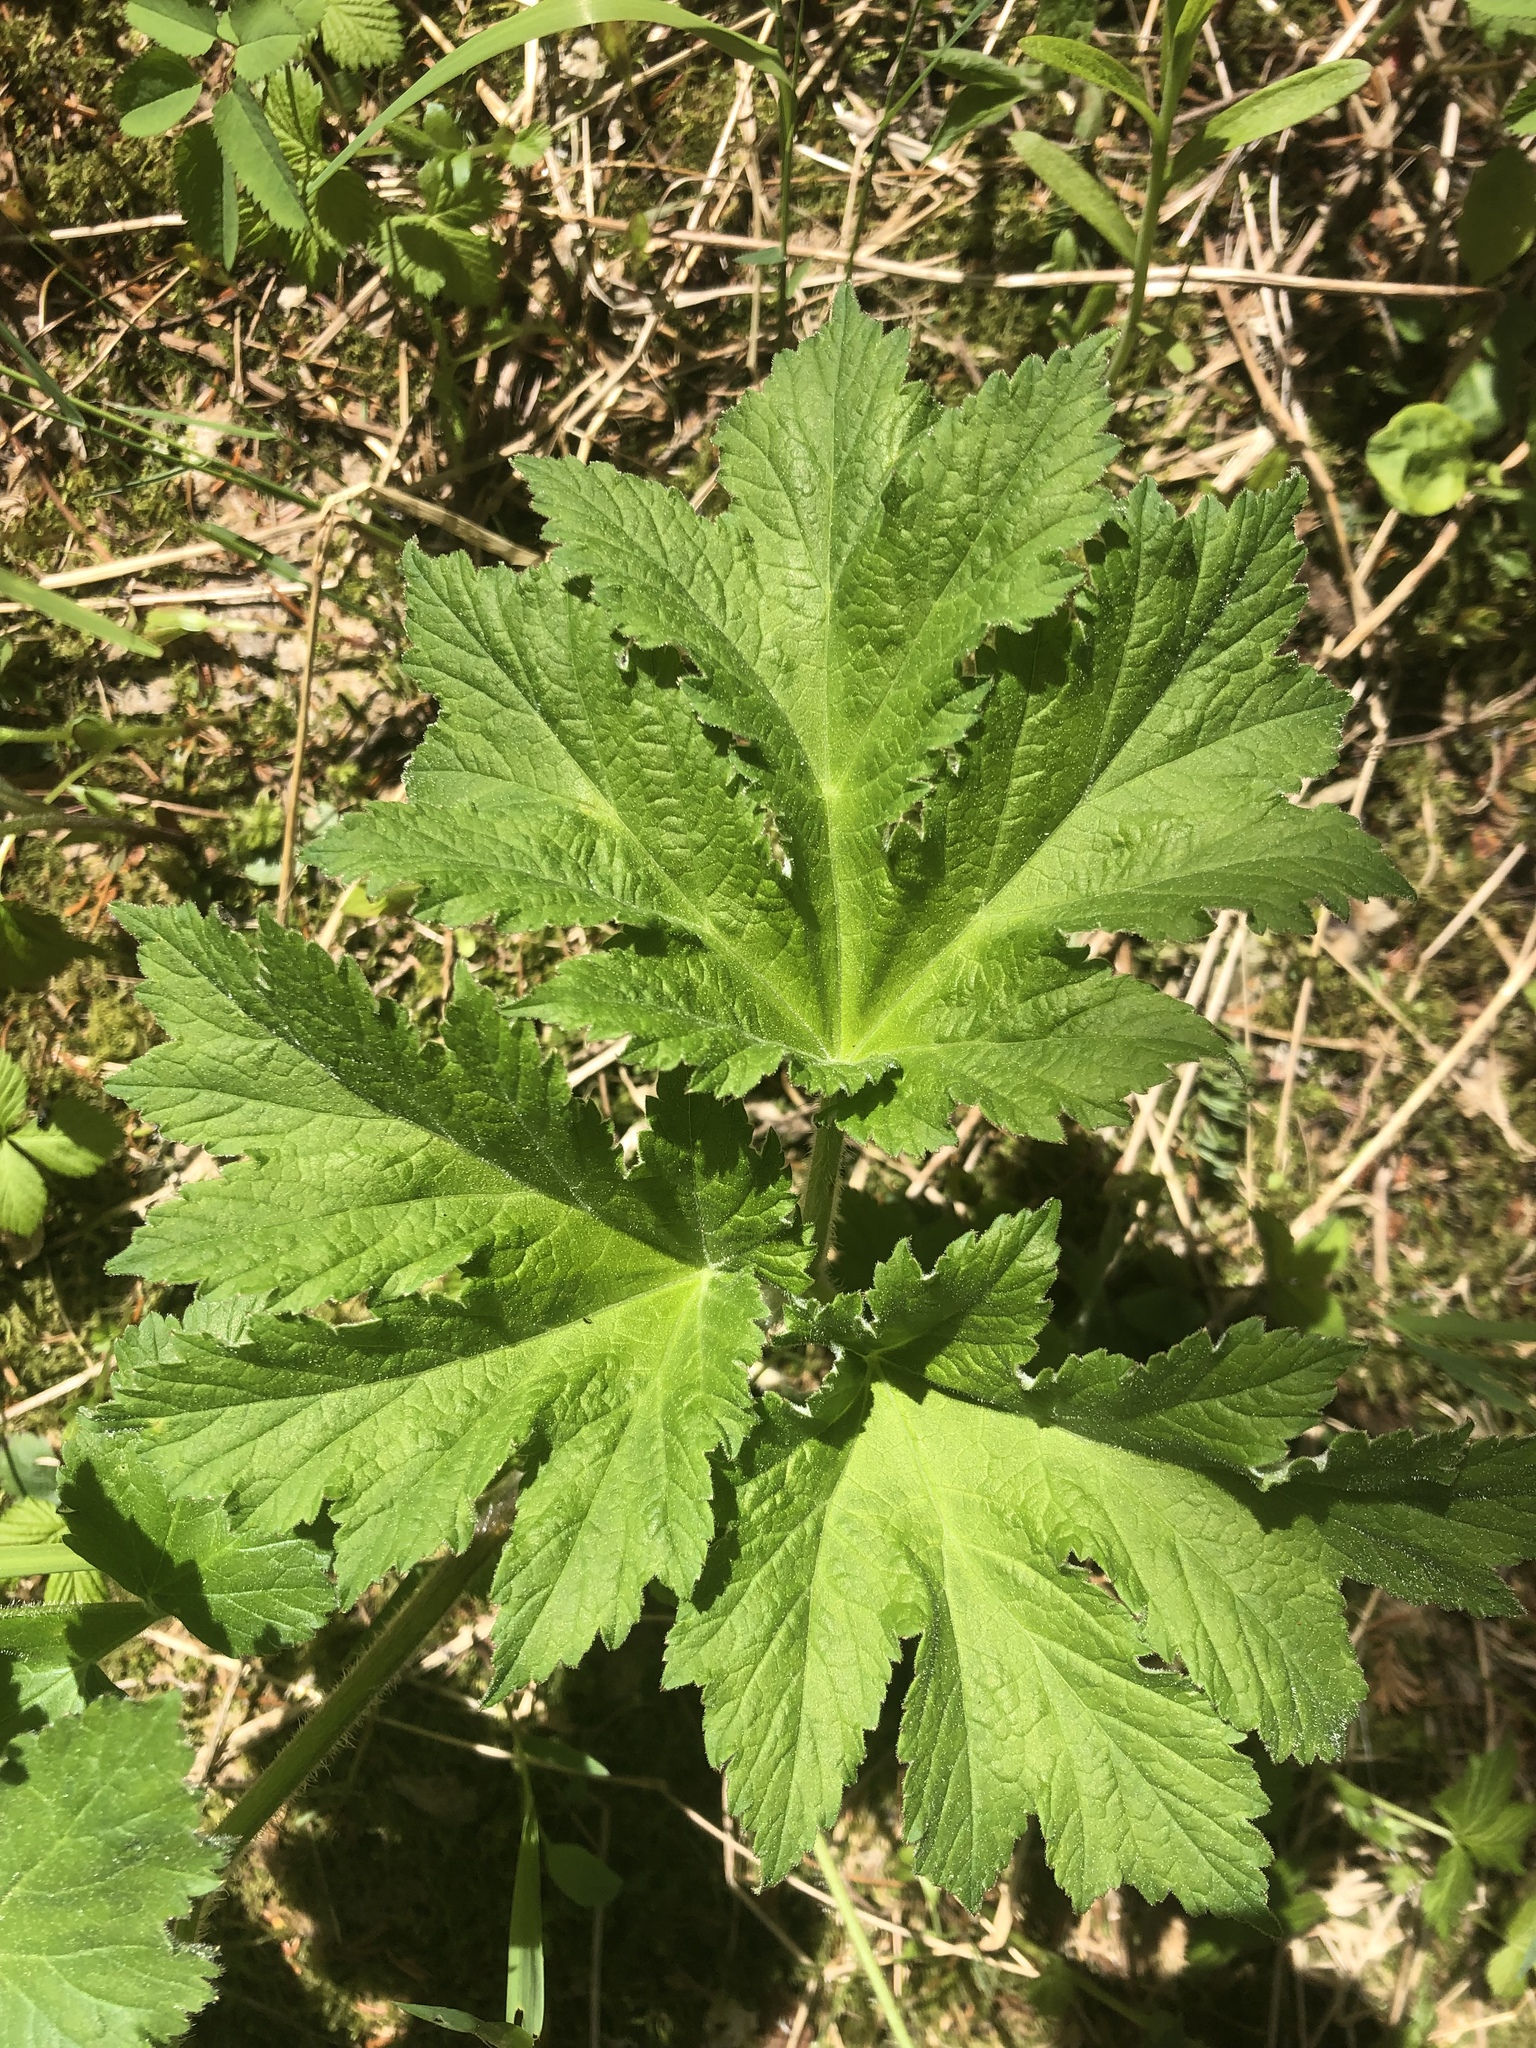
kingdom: Plantae
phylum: Tracheophyta
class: Magnoliopsida
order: Apiales
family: Apiaceae
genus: Heracleum
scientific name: Heracleum maximum
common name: American cow parsnip
